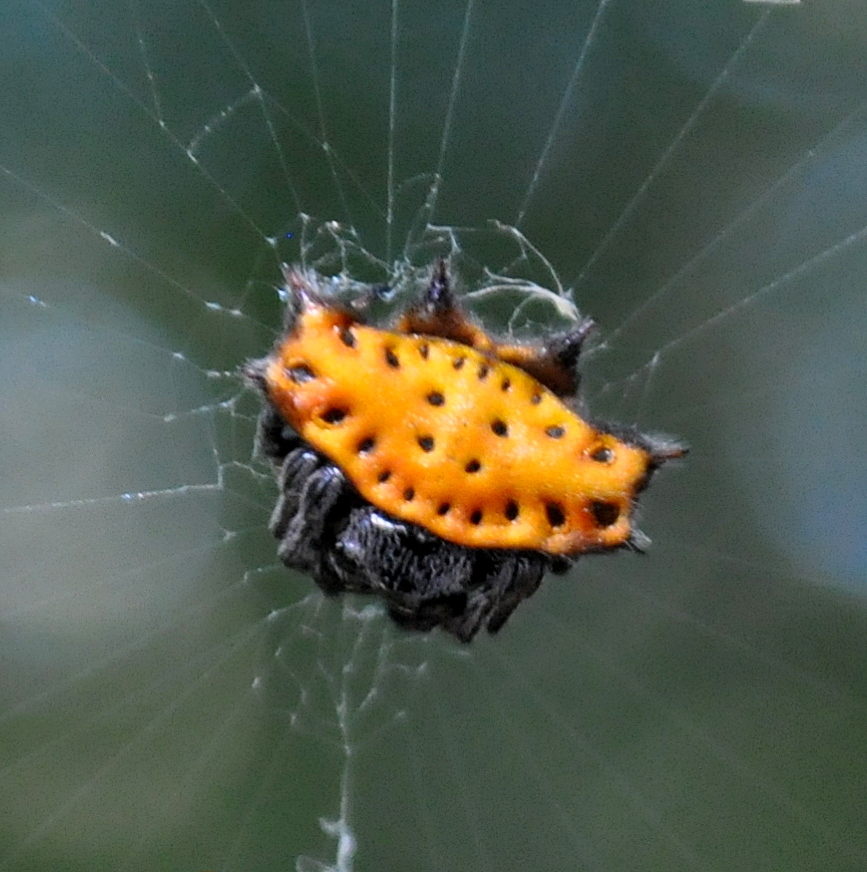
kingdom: Animalia
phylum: Arthropoda
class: Arachnida
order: Araneae
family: Araneidae
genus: Gasteracantha
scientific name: Gasteracantha cancriformis
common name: Orb weavers
